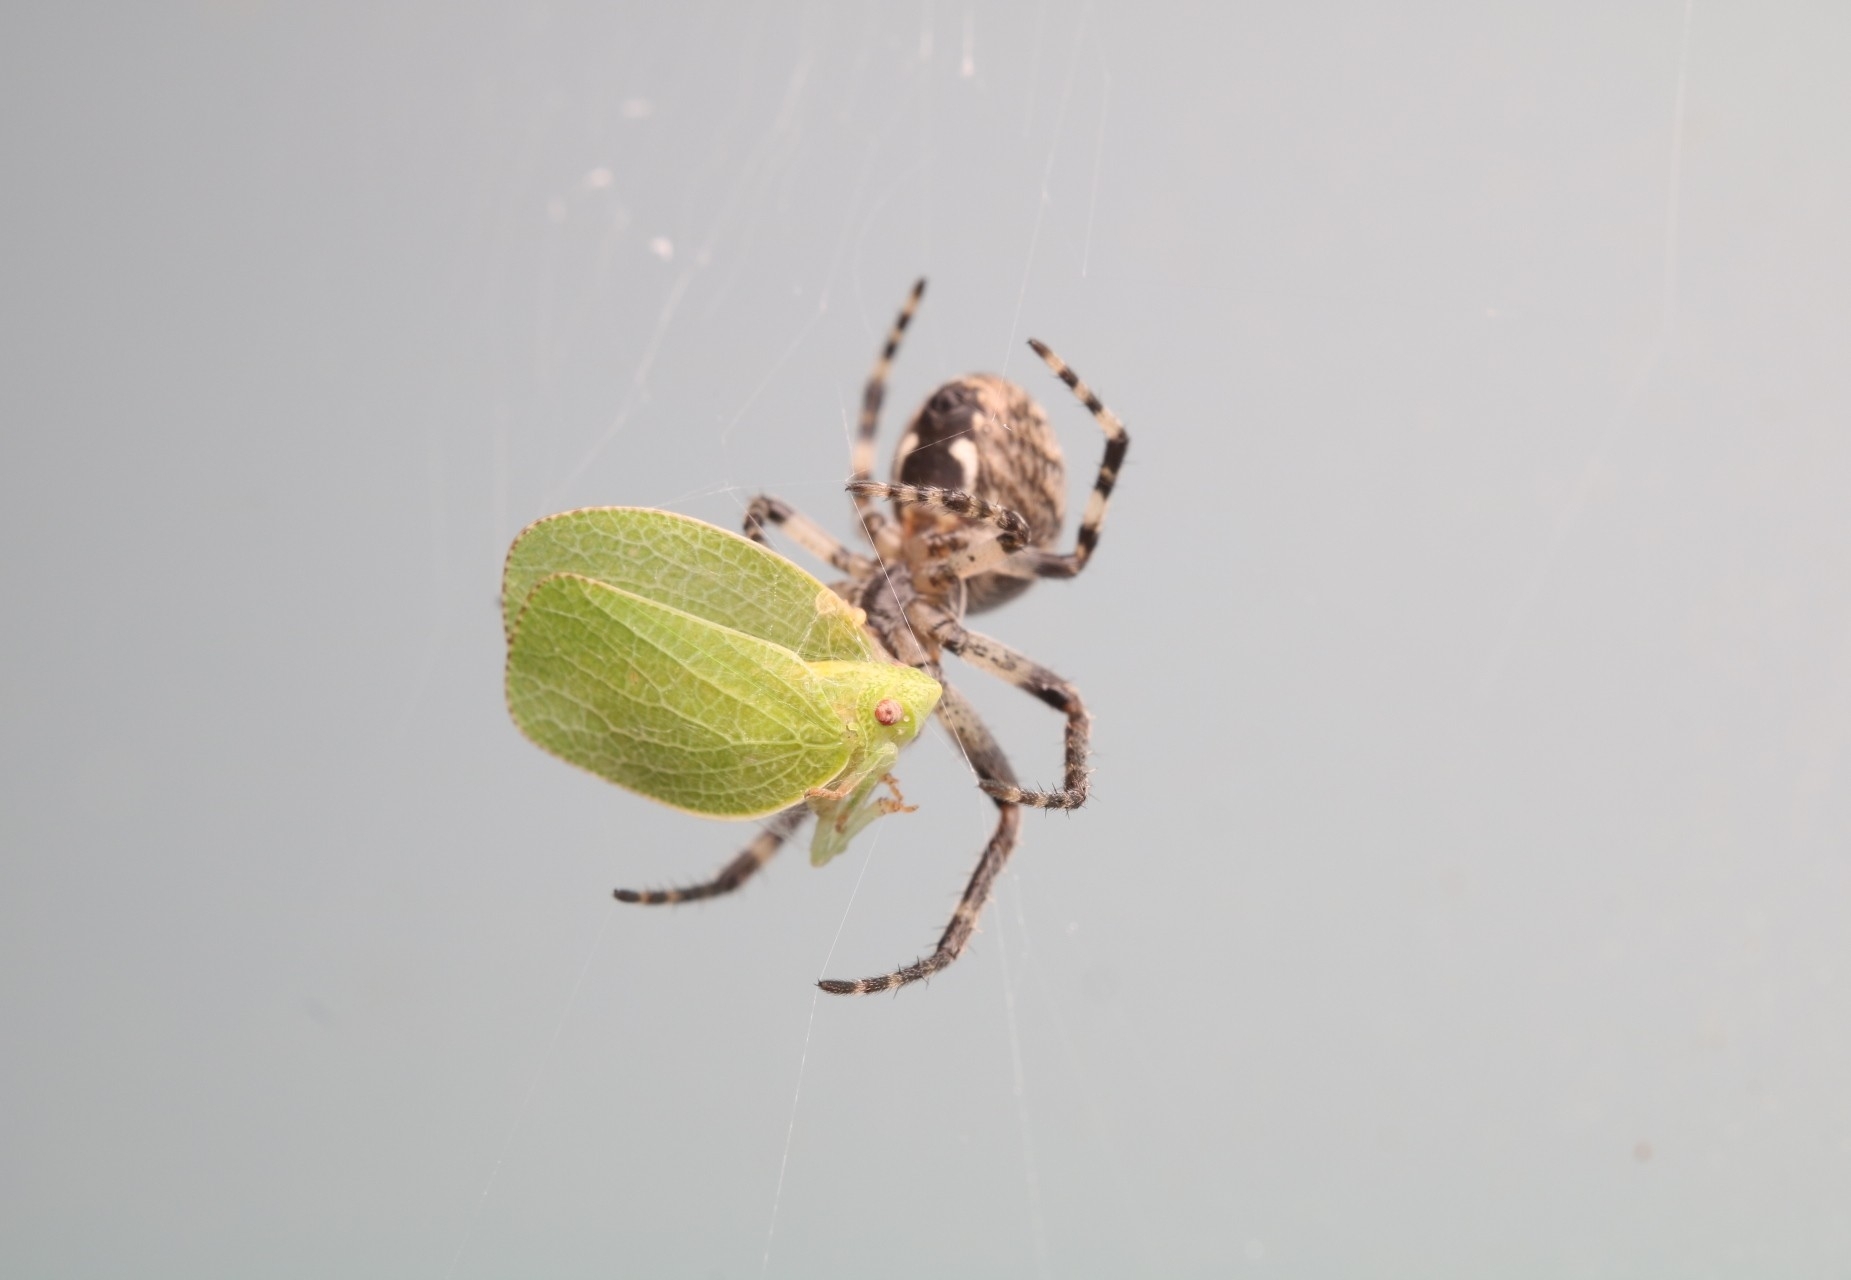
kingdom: Animalia
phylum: Arthropoda
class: Insecta
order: Hemiptera
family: Acanaloniidae
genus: Acanalonia
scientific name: Acanalonia conica
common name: Green cone-headed planthopper
